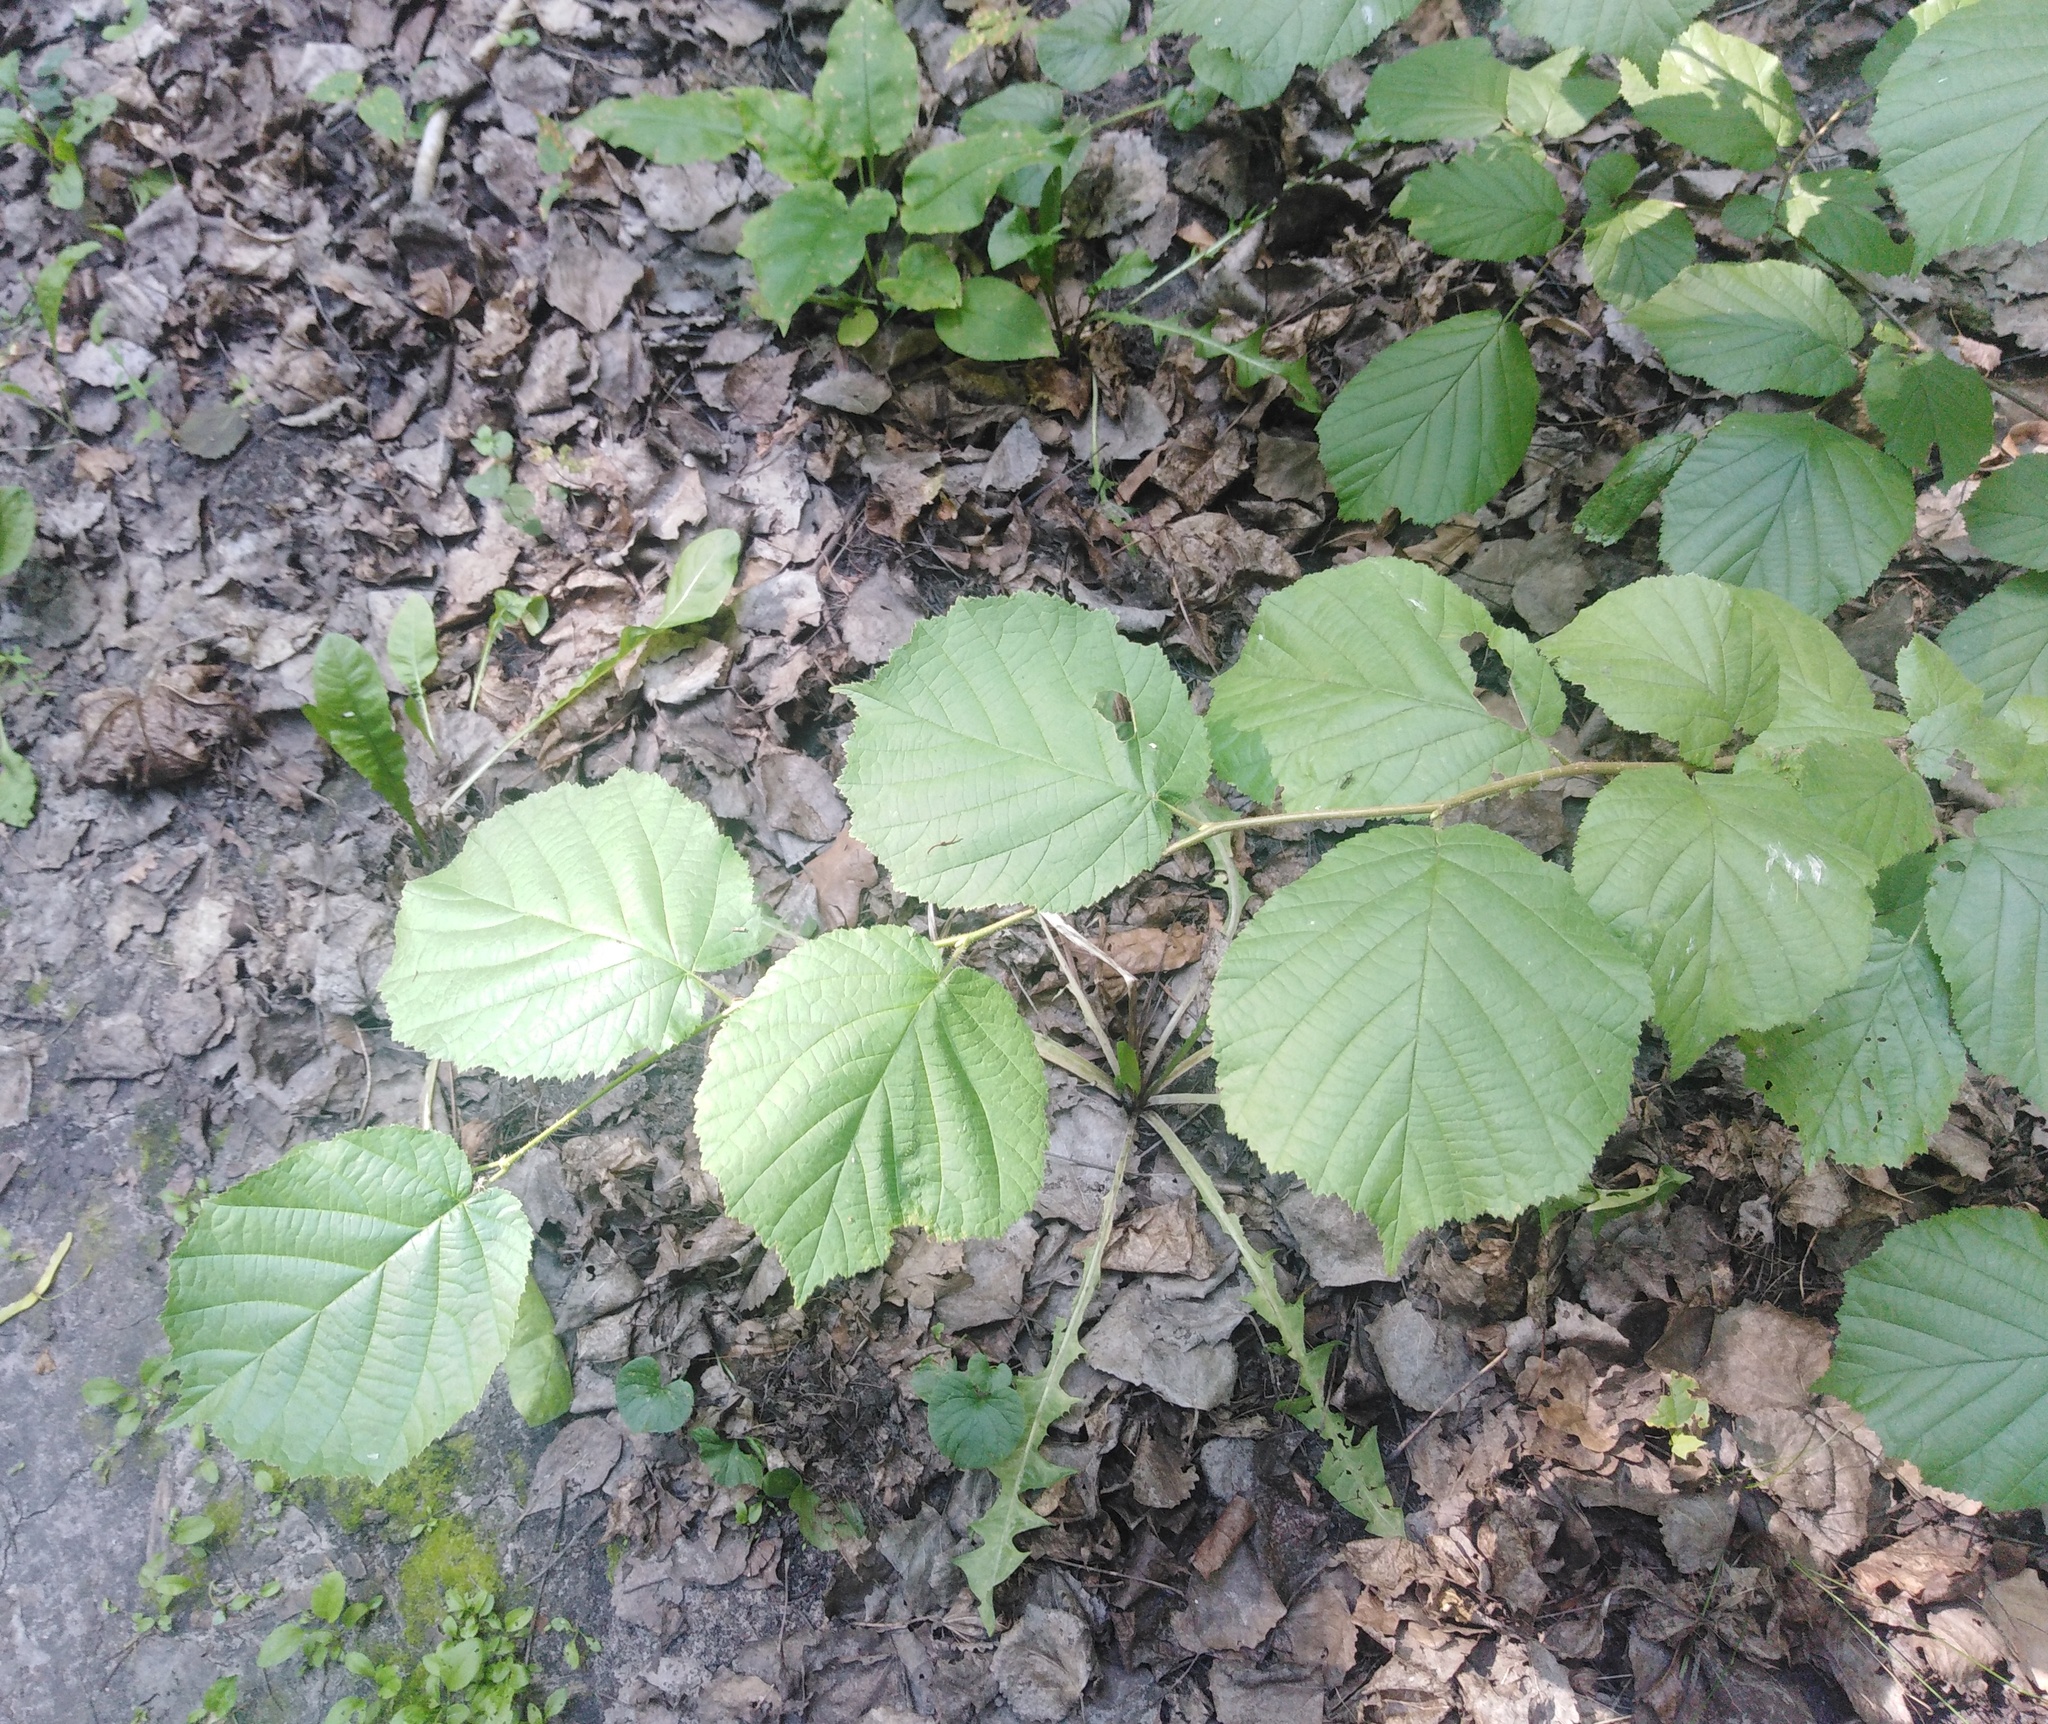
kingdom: Plantae
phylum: Tracheophyta
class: Magnoliopsida
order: Fagales
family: Betulaceae
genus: Corylus
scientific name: Corylus avellana
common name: European hazel
